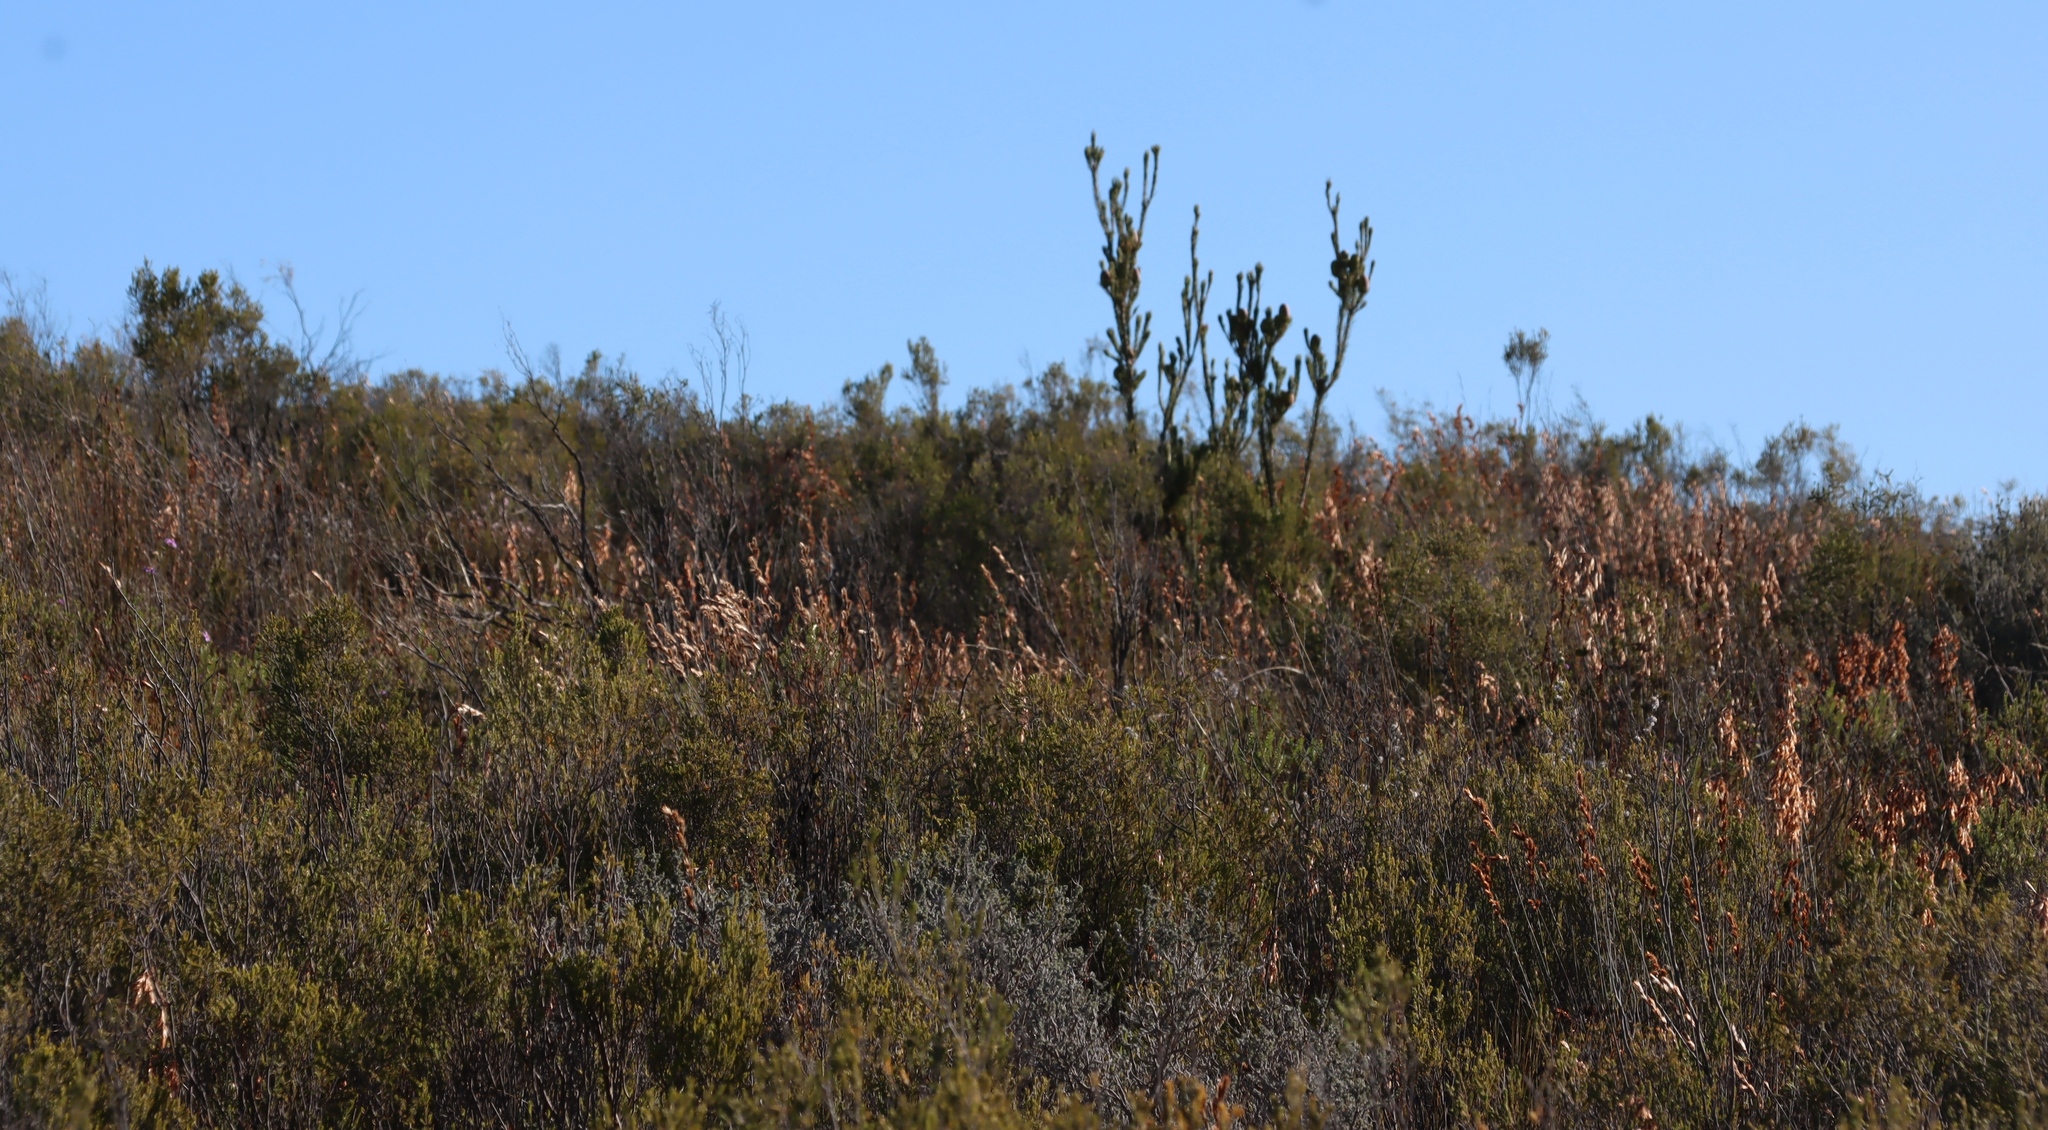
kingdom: Plantae
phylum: Tracheophyta
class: Magnoliopsida
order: Proteales
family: Proteaceae
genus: Leucadendron
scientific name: Leucadendron nobile
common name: Karoo conebush
